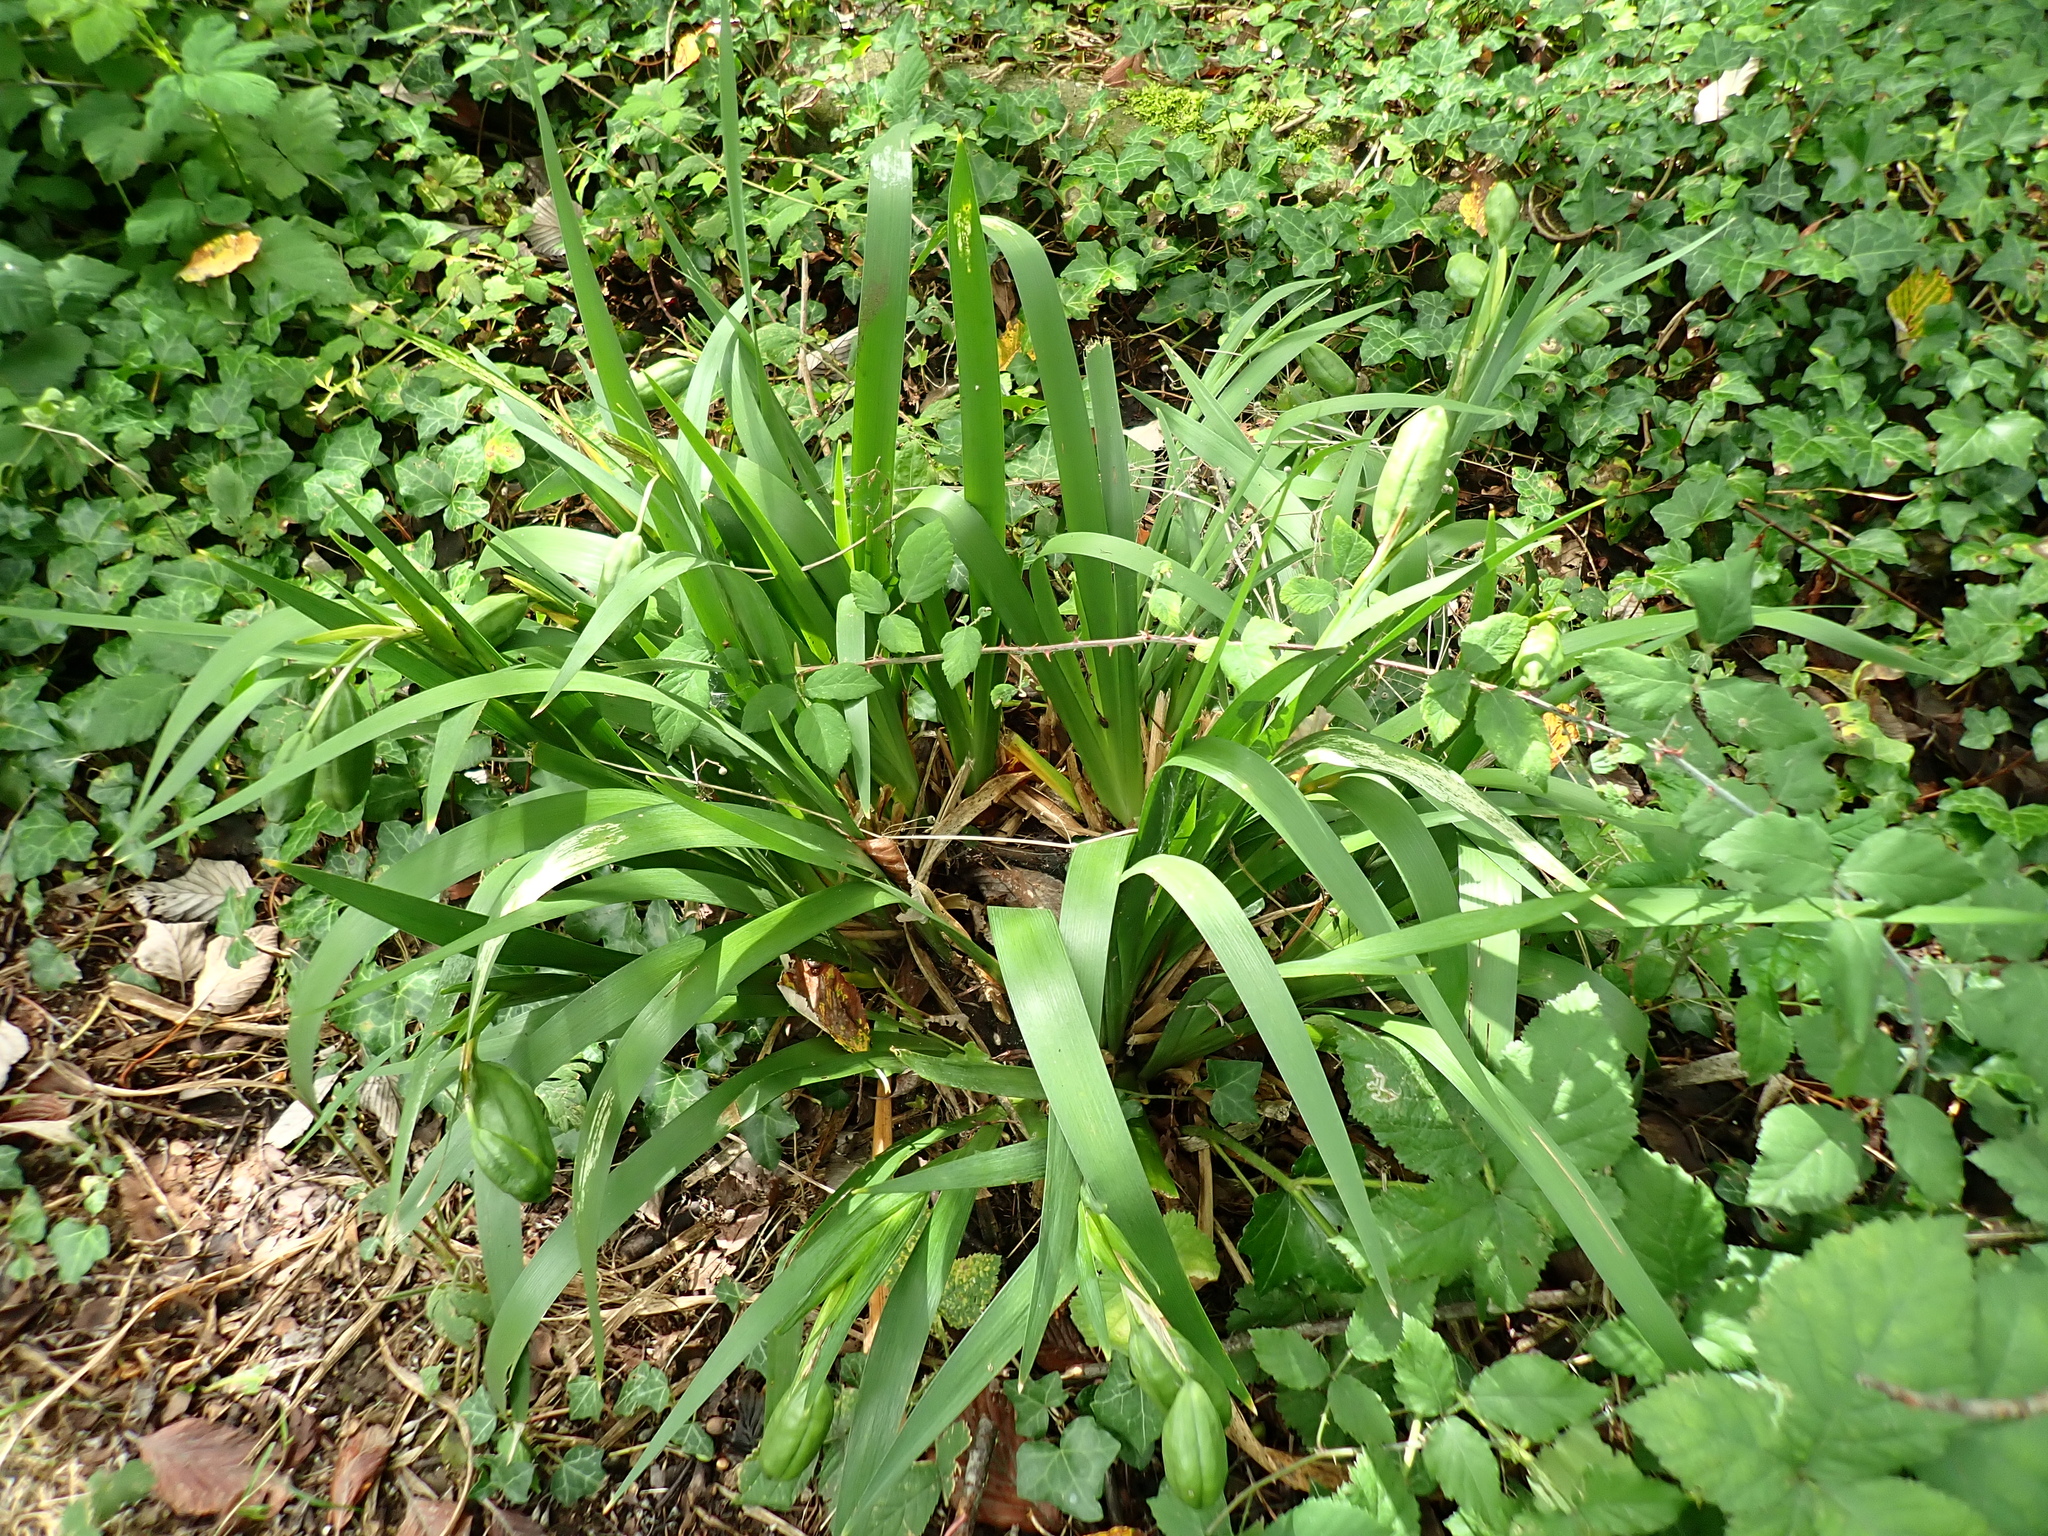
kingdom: Plantae
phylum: Tracheophyta
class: Liliopsida
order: Asparagales
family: Iridaceae
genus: Iris
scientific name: Iris foetidissima
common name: Stinking iris
